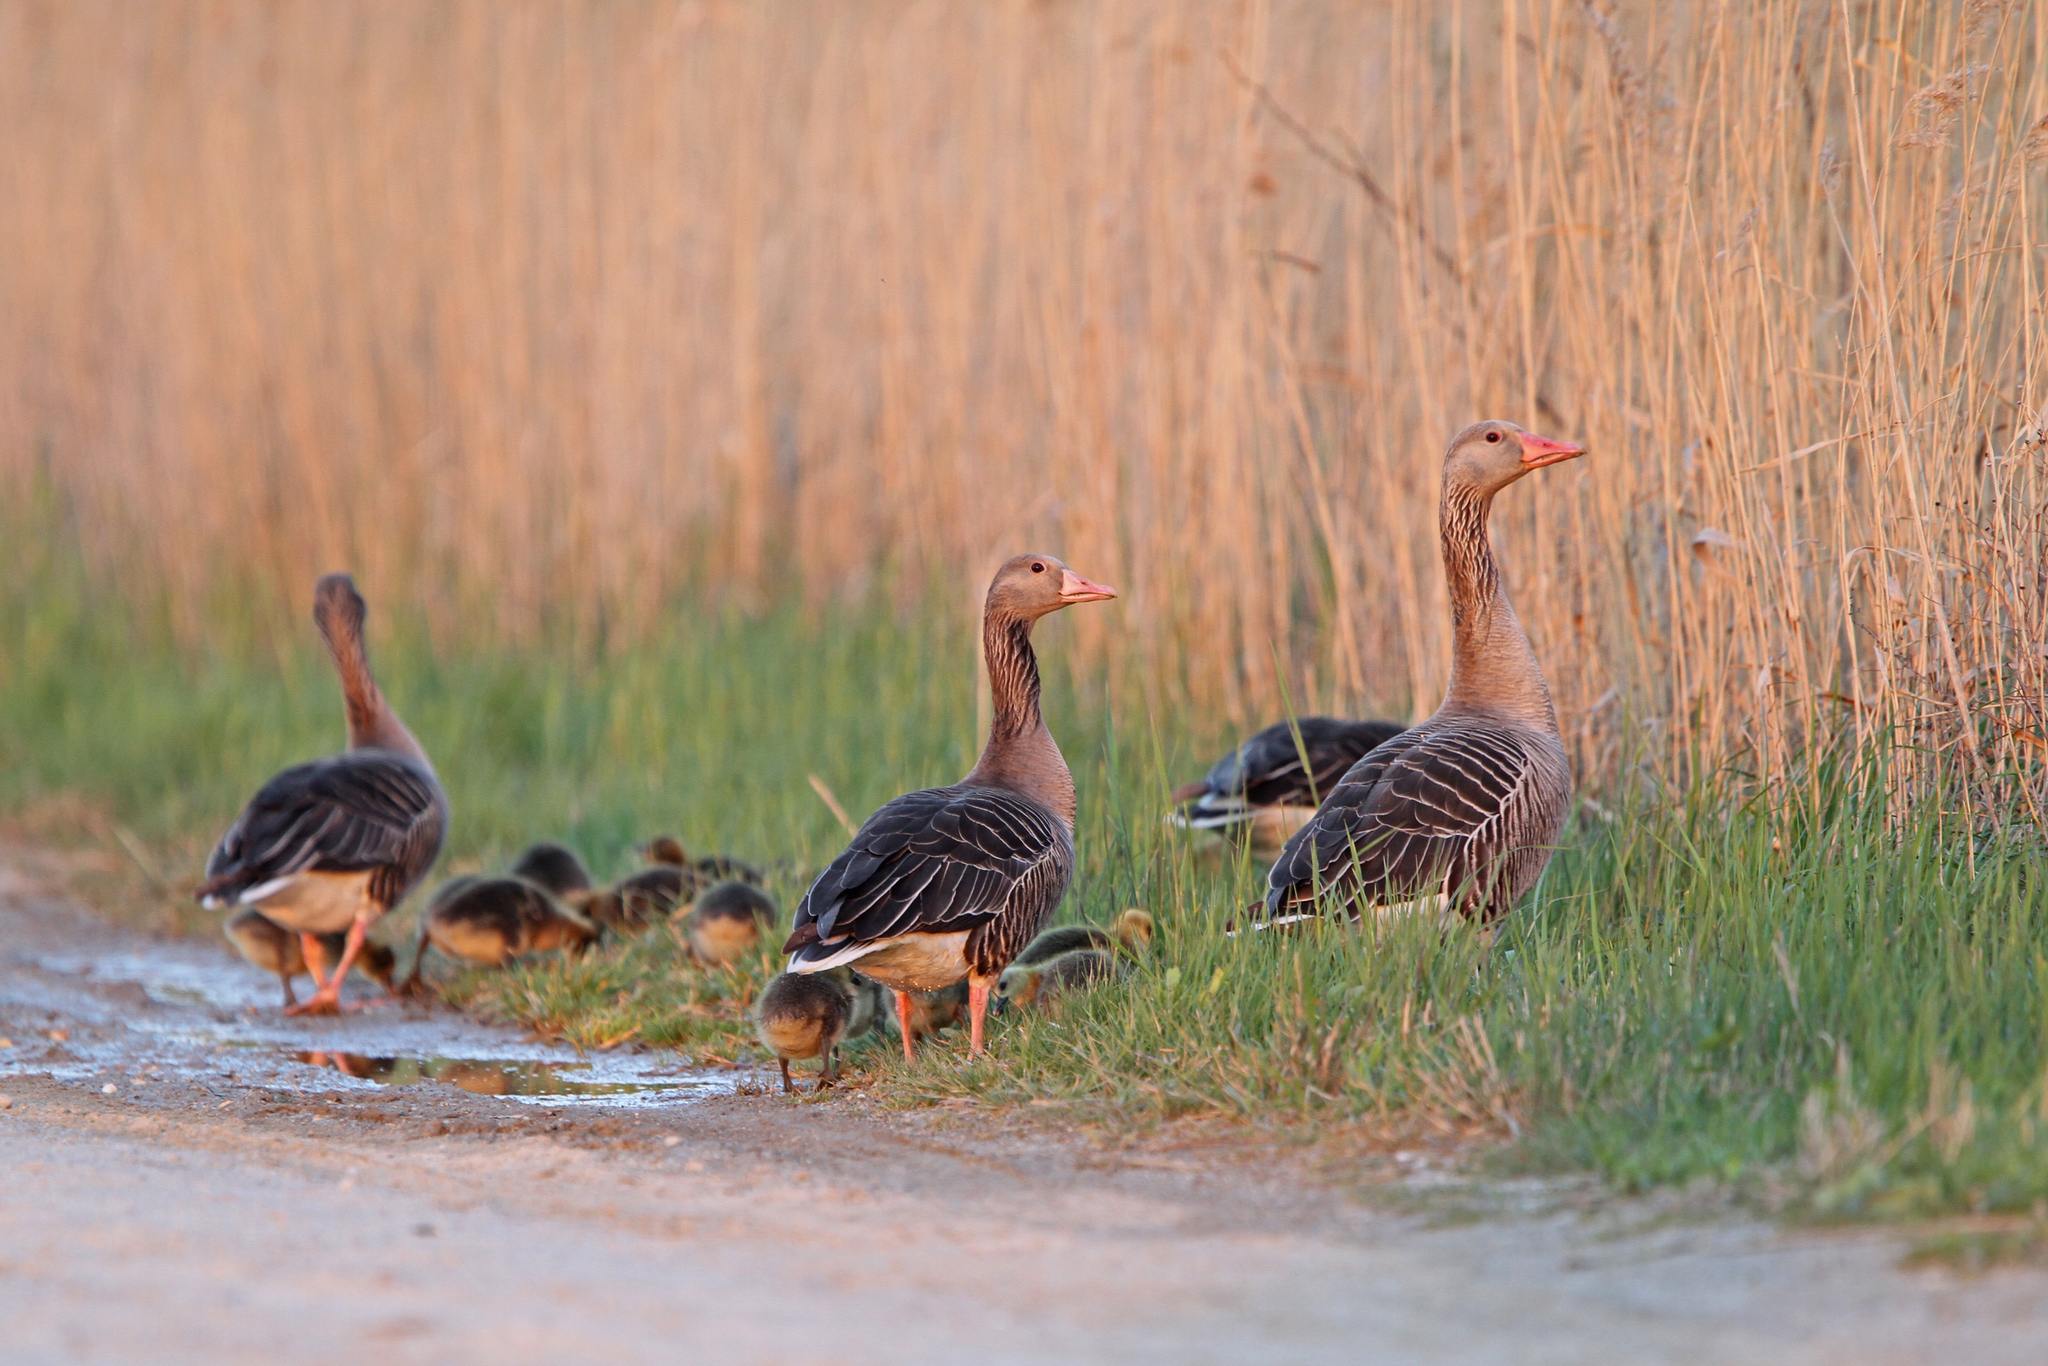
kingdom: Animalia
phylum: Chordata
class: Aves
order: Anseriformes
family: Anatidae
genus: Anser
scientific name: Anser anser
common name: Greylag goose
